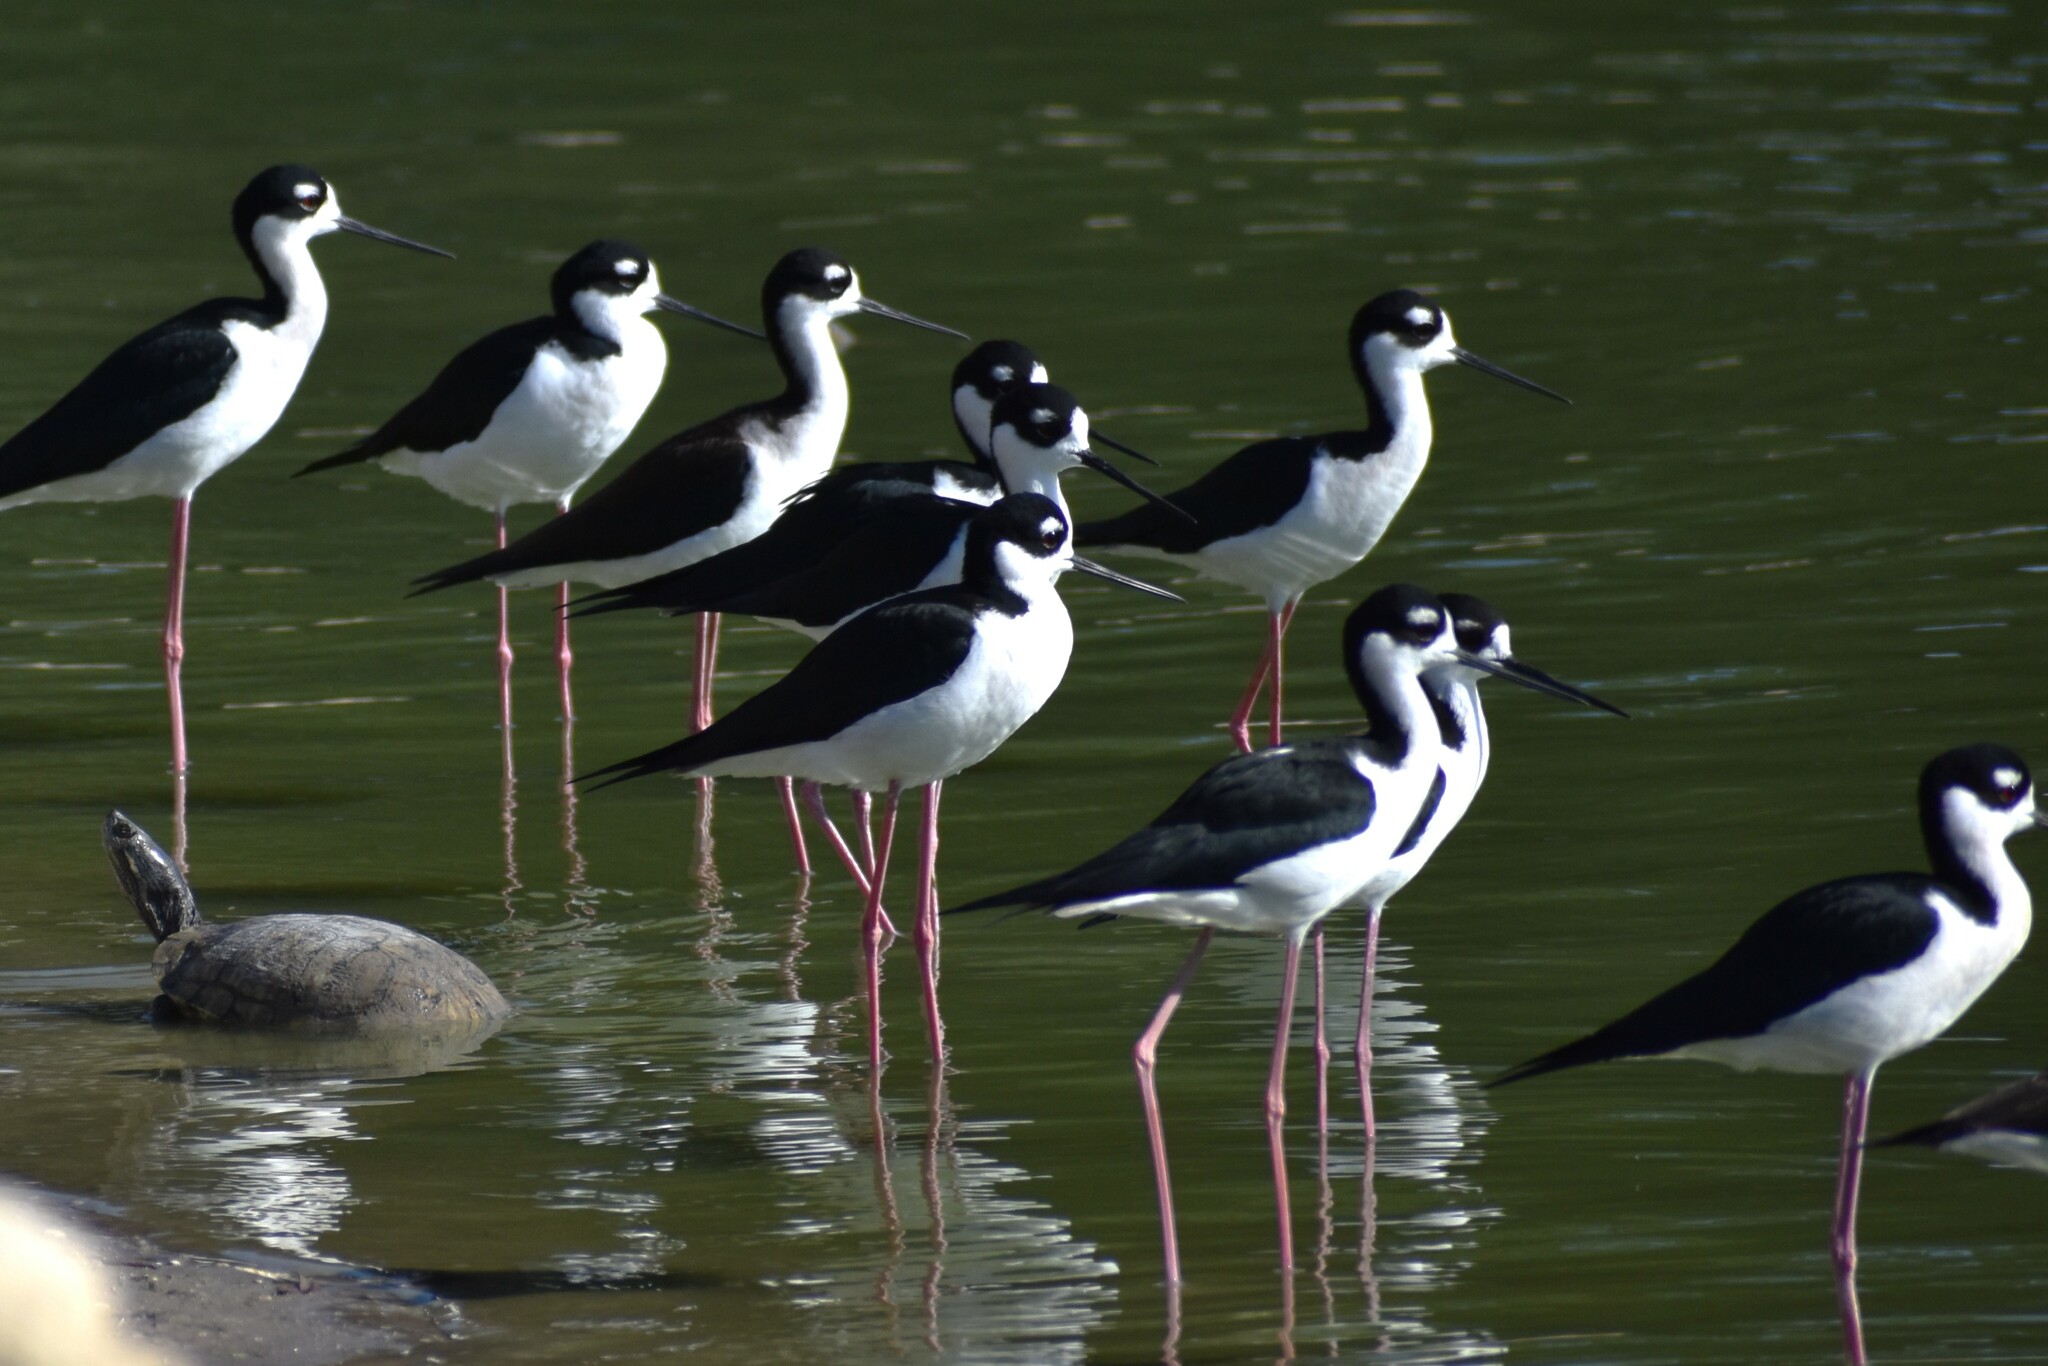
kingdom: Animalia
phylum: Chordata
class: Aves
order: Charadriiformes
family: Recurvirostridae
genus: Himantopus
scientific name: Himantopus mexicanus
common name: Black-necked stilt
